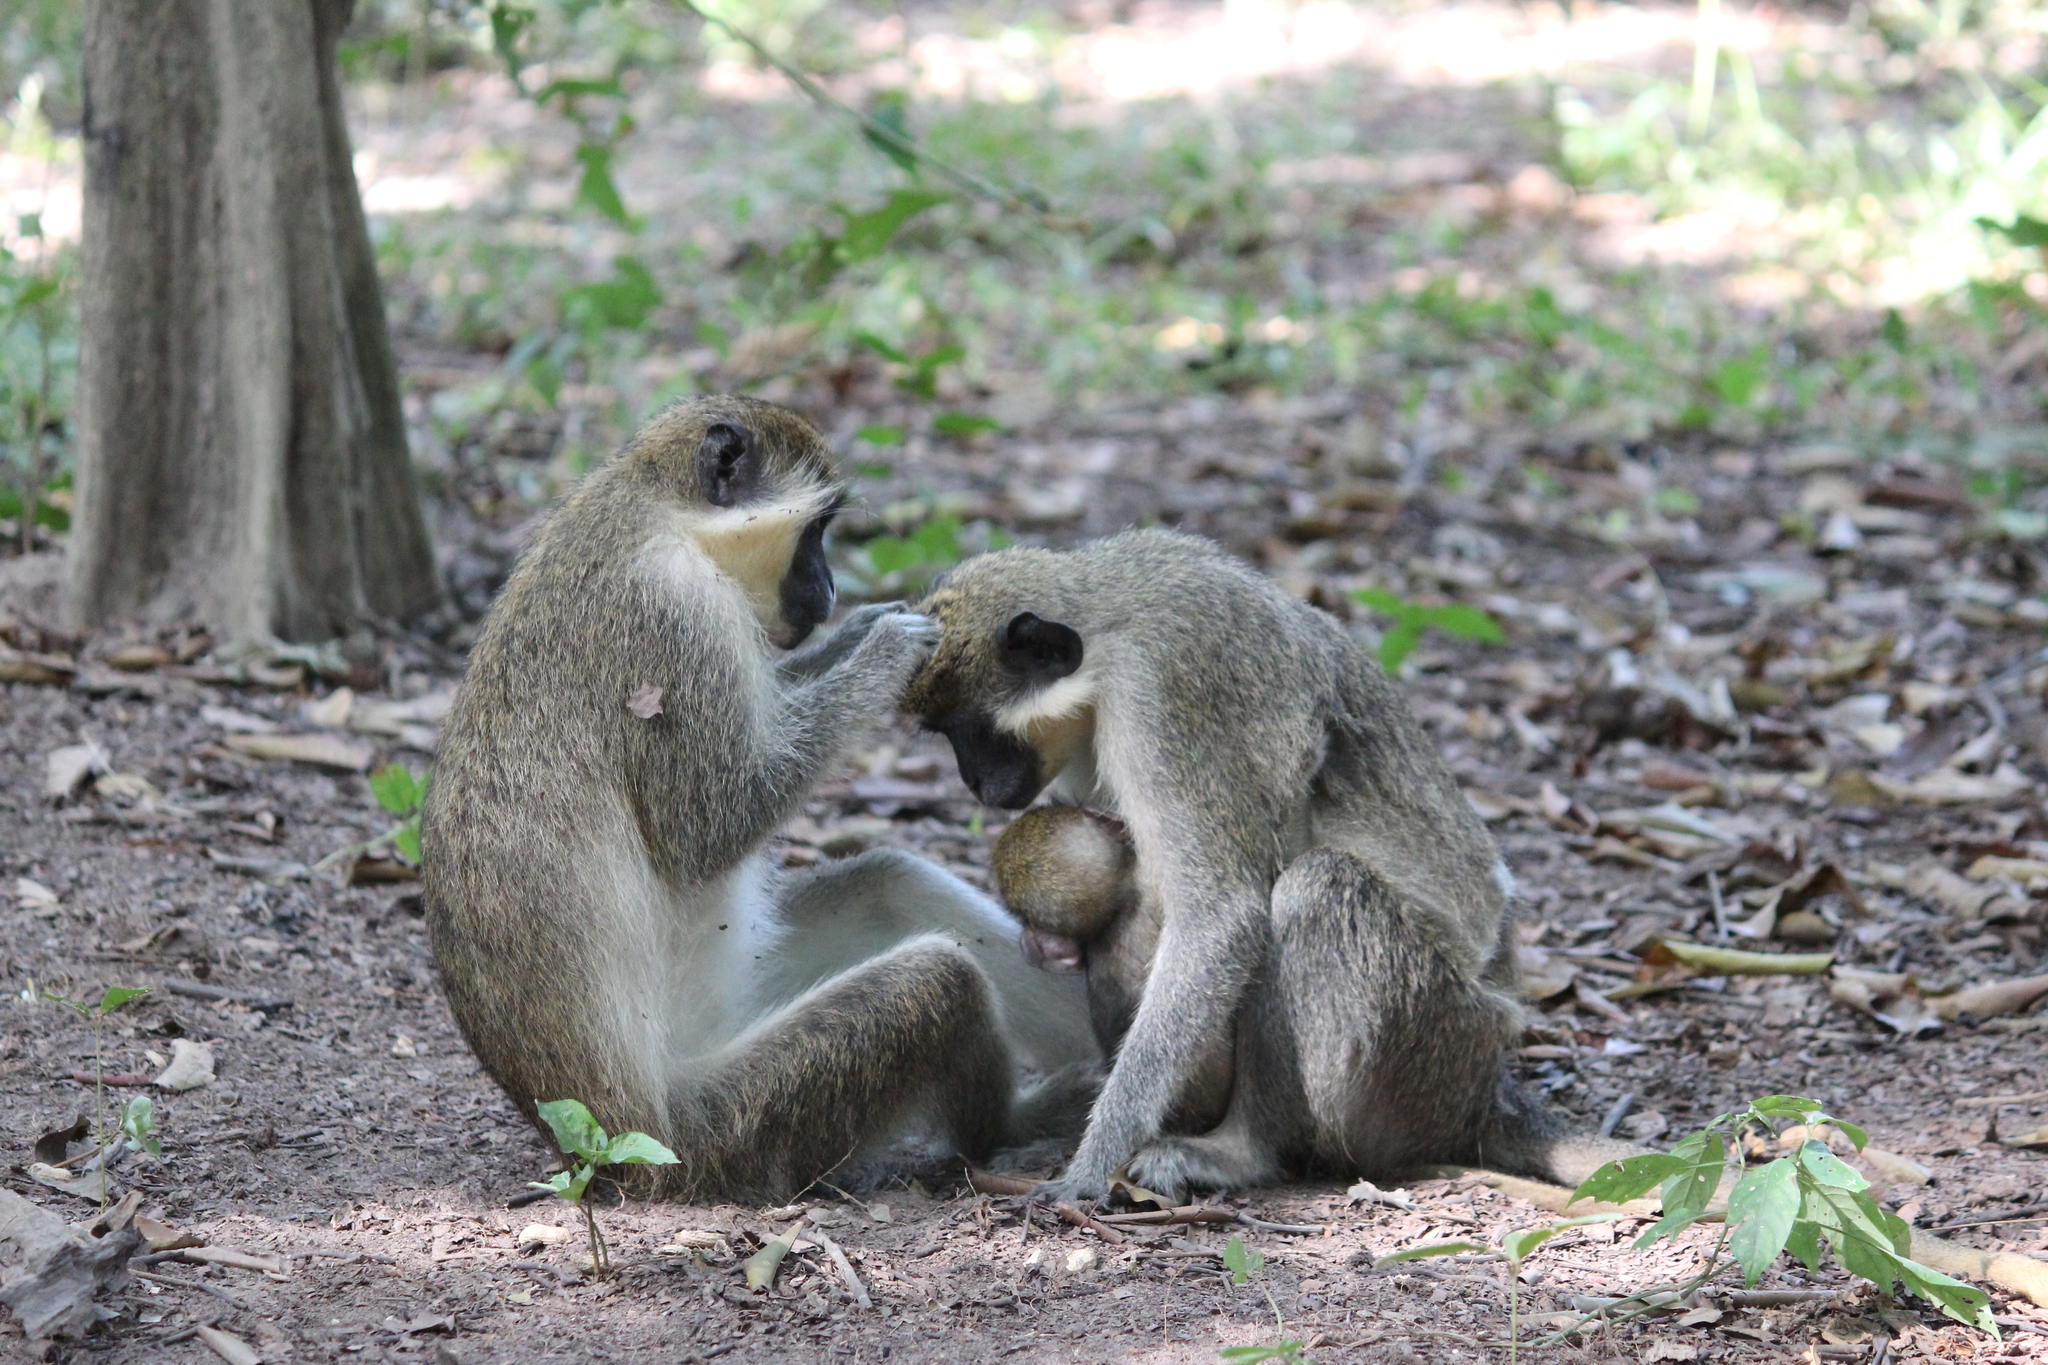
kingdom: Animalia
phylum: Chordata
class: Mammalia
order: Primates
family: Cercopithecidae
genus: Chlorocebus
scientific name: Chlorocebus sabaeus
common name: Green monkey
